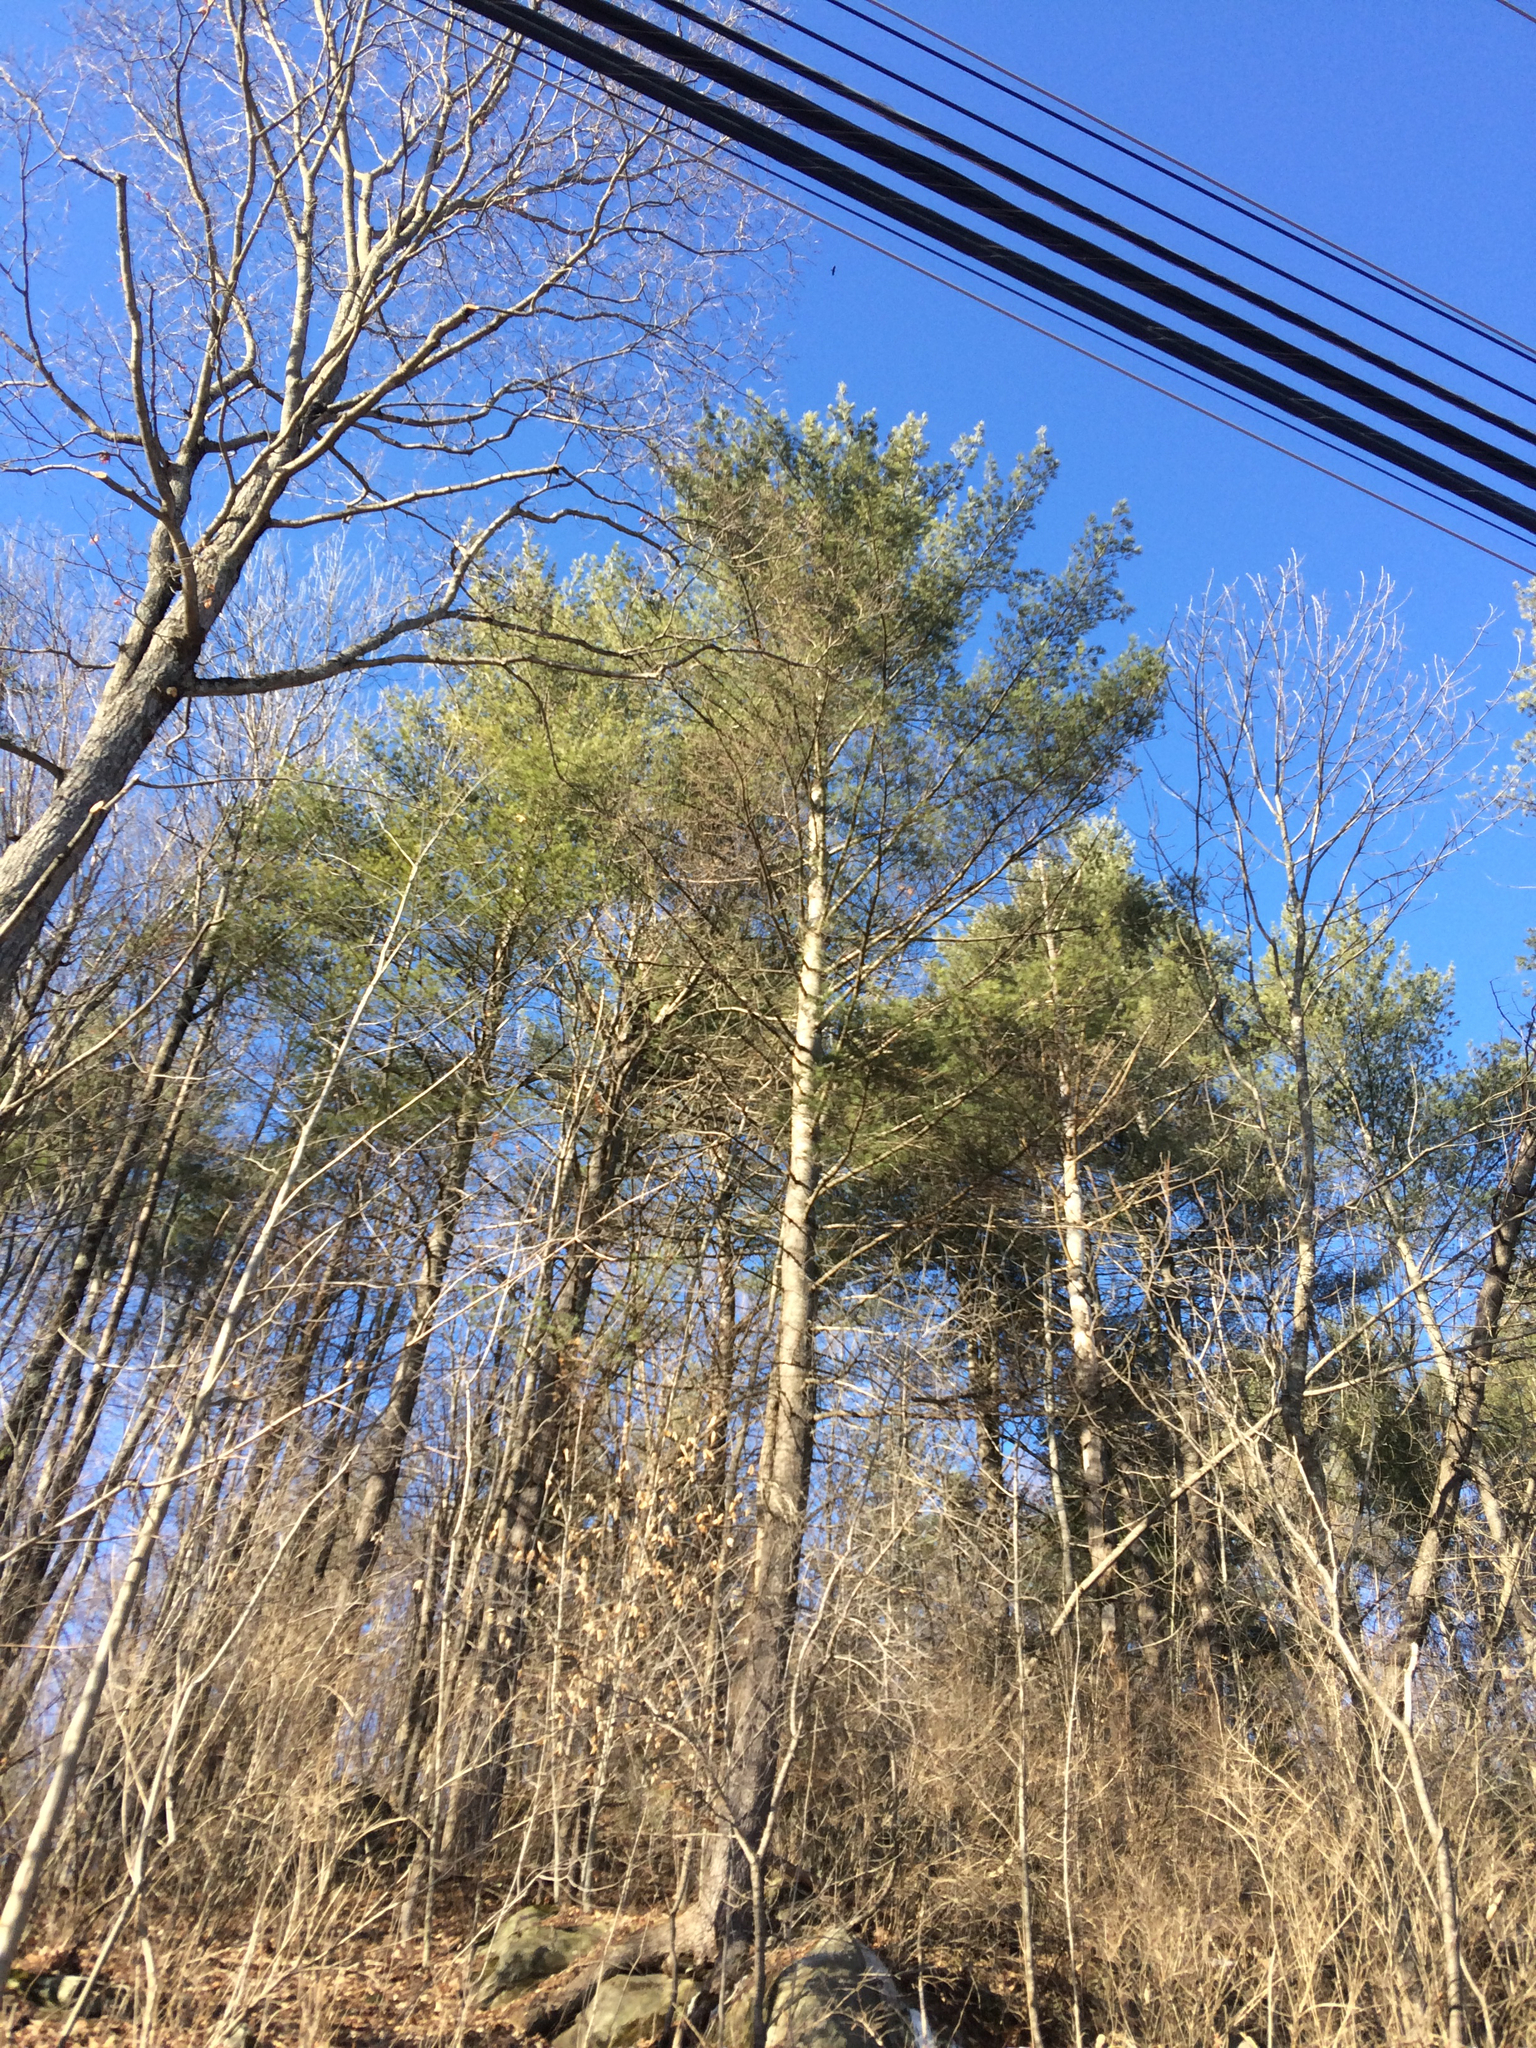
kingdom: Plantae
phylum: Tracheophyta
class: Pinopsida
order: Pinales
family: Pinaceae
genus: Pinus
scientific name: Pinus strobus
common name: Weymouth pine
